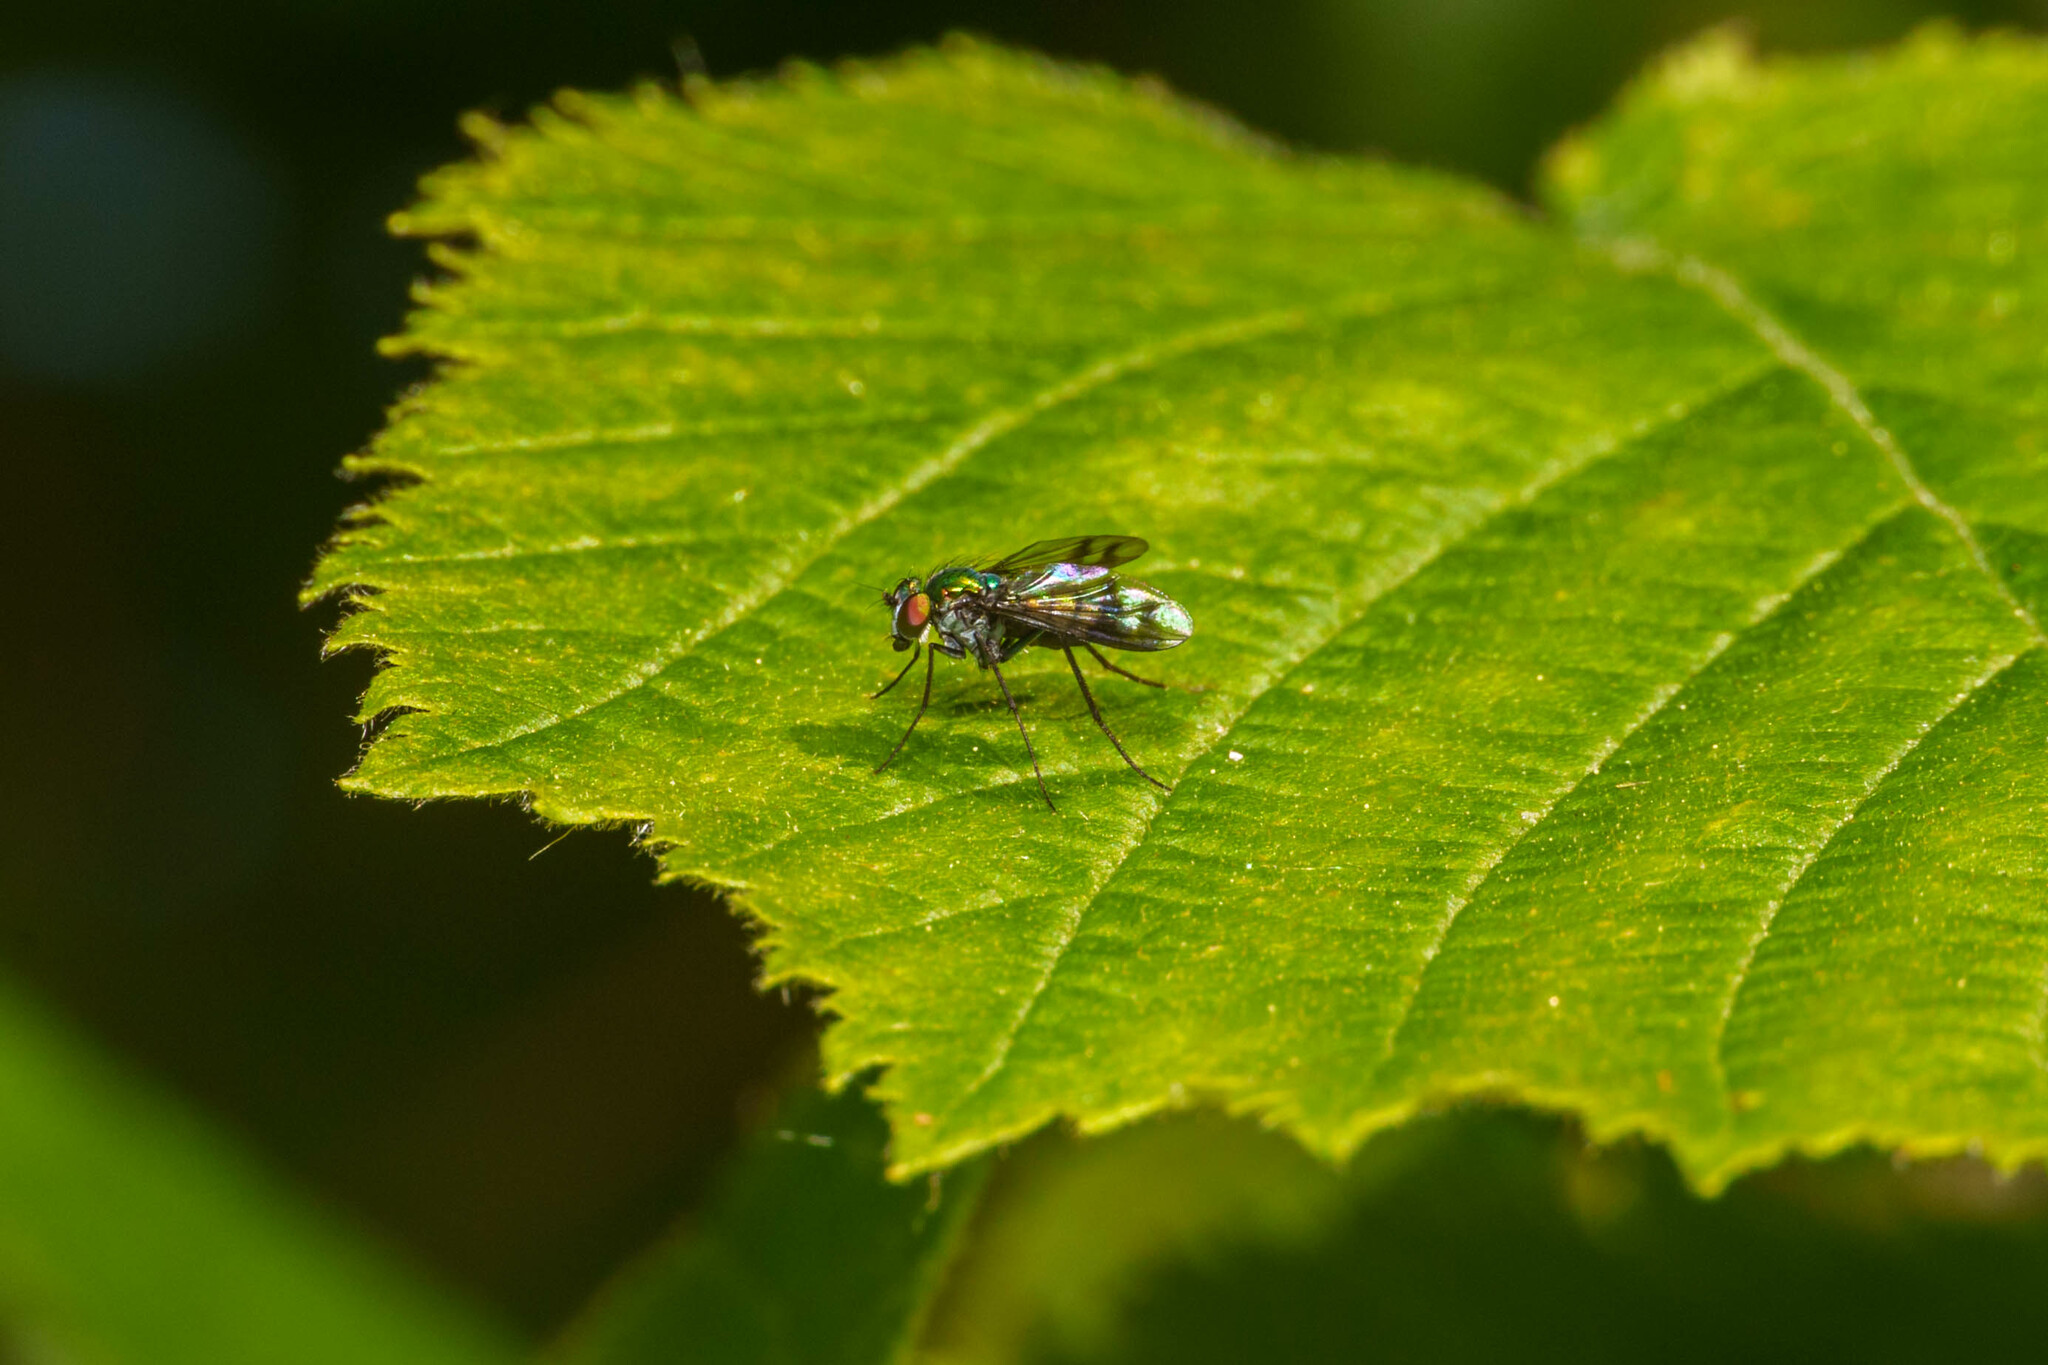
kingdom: Animalia
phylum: Arthropoda
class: Insecta
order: Diptera
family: Dolichopodidae
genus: Condylostylus
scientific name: Condylostylus occidentalis
